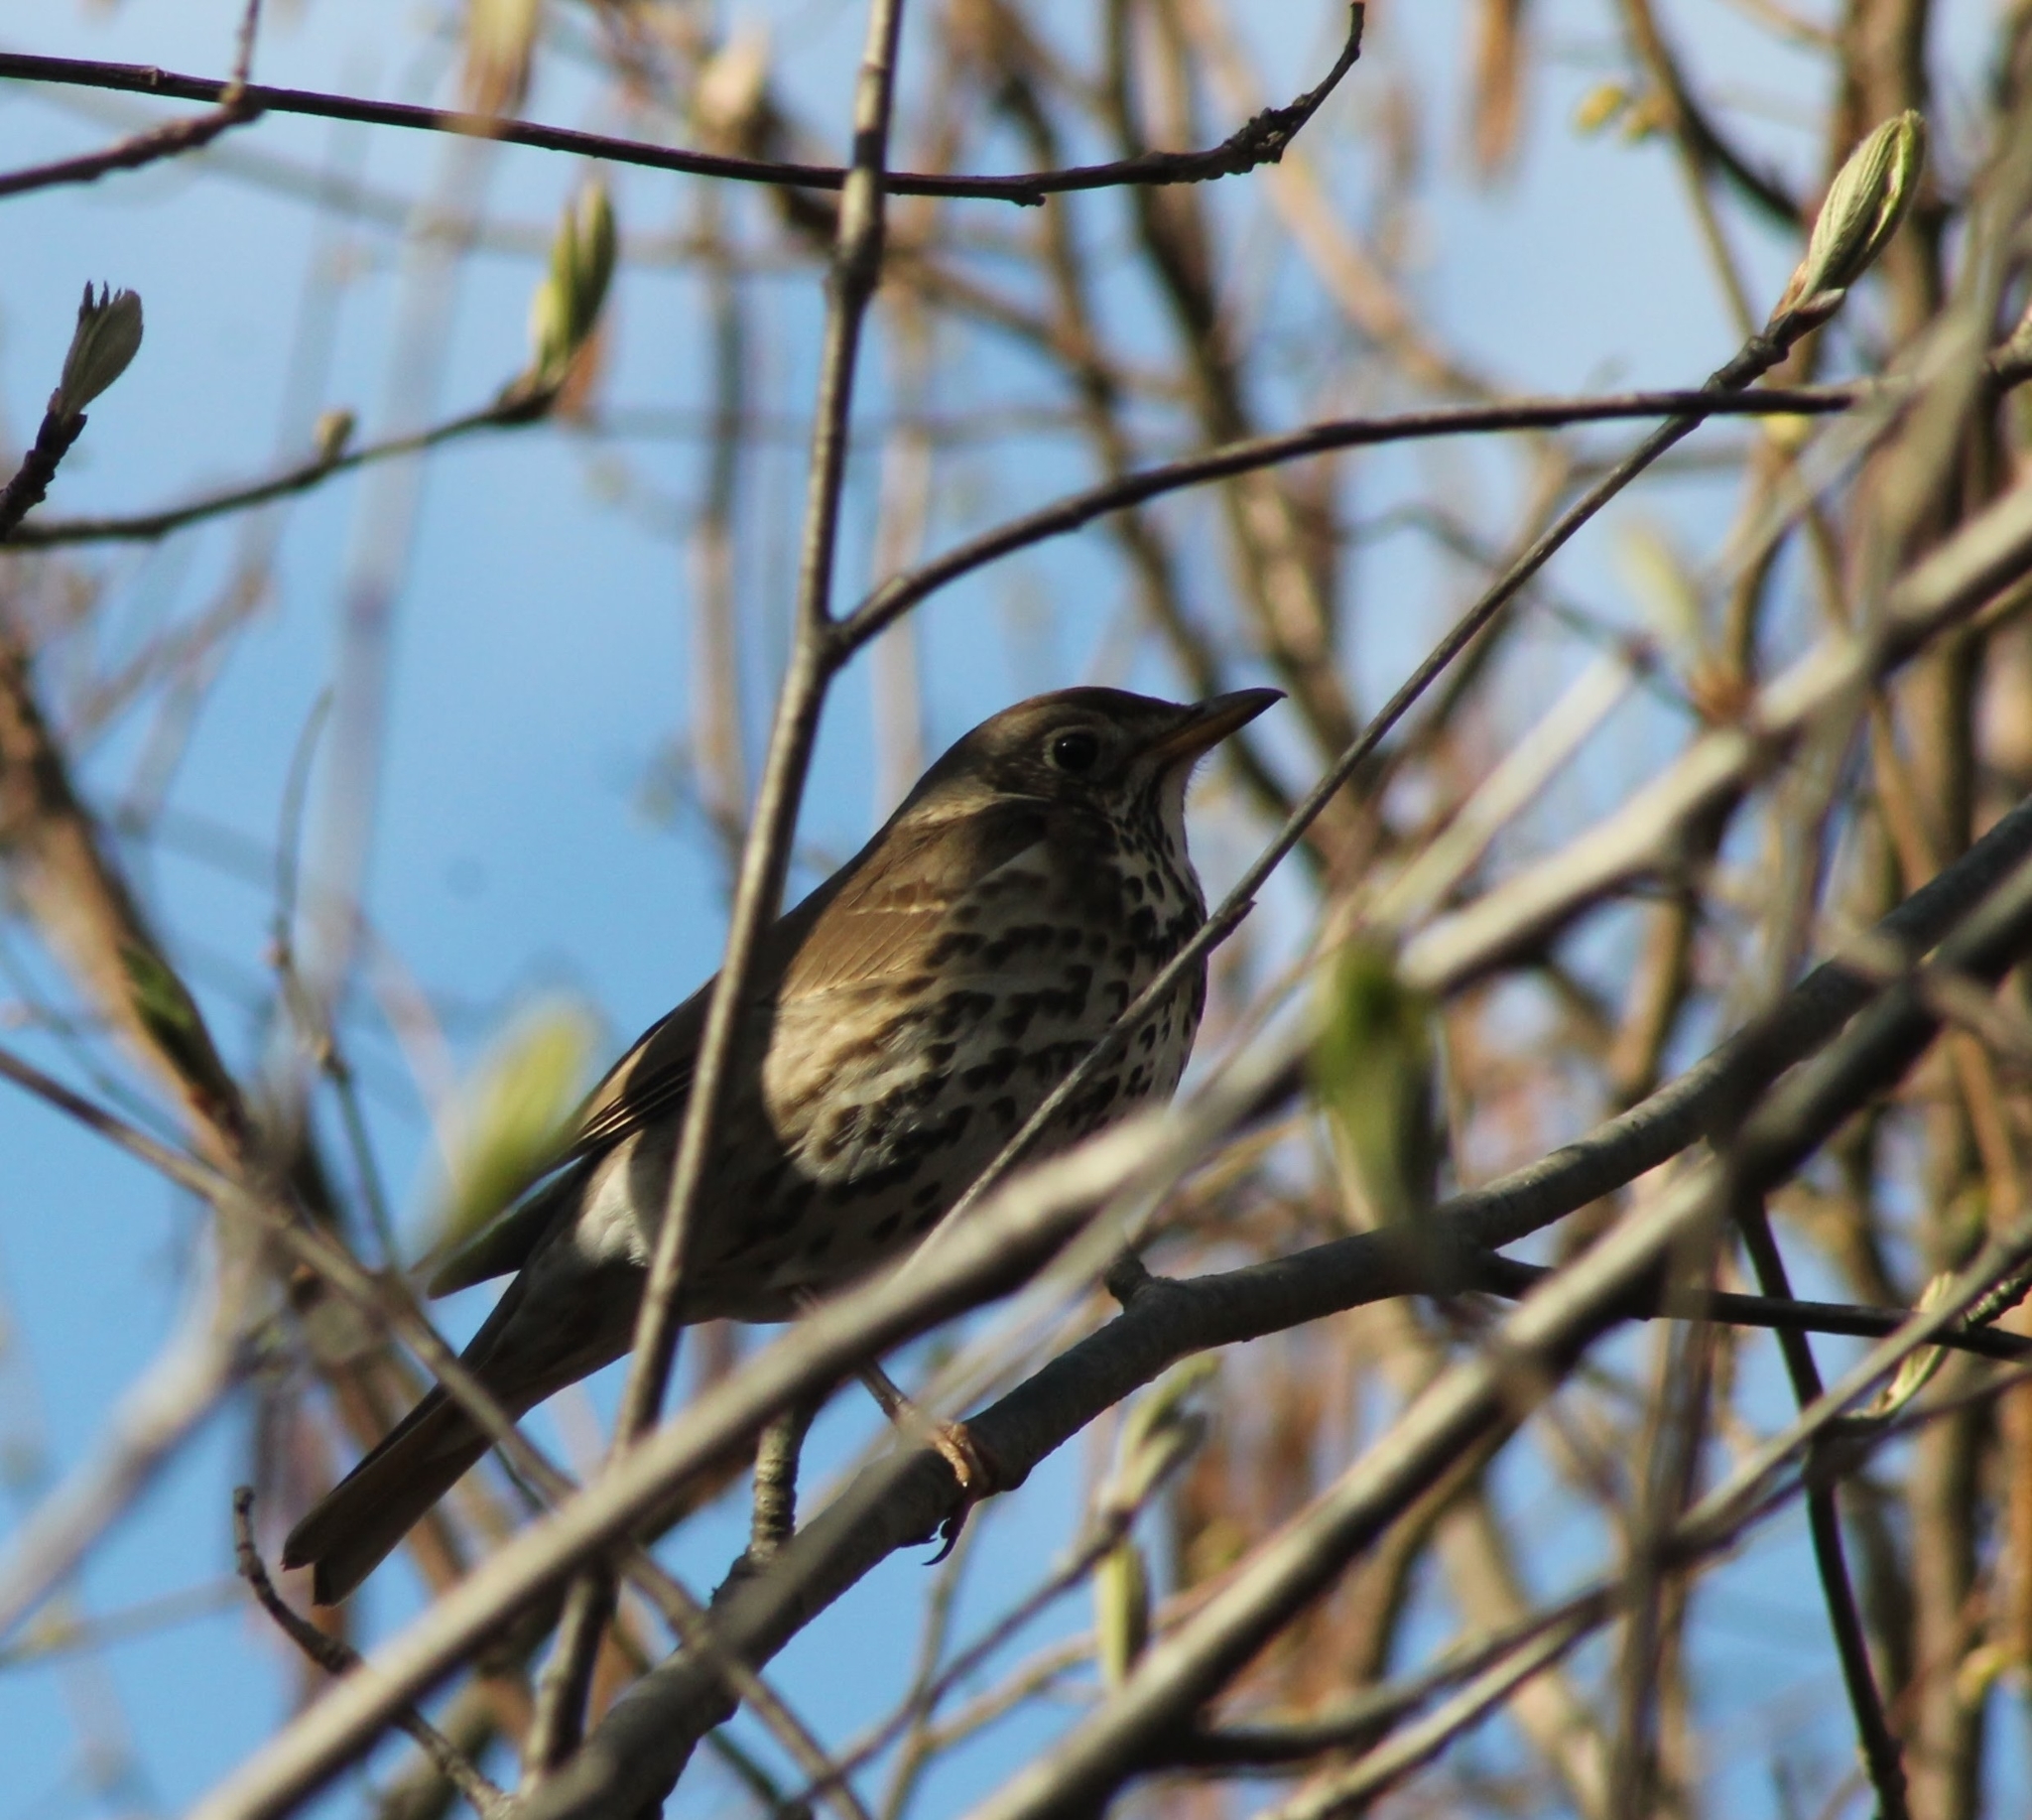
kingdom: Animalia
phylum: Chordata
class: Aves
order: Passeriformes
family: Turdidae
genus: Turdus
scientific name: Turdus philomelos
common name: Song thrush
